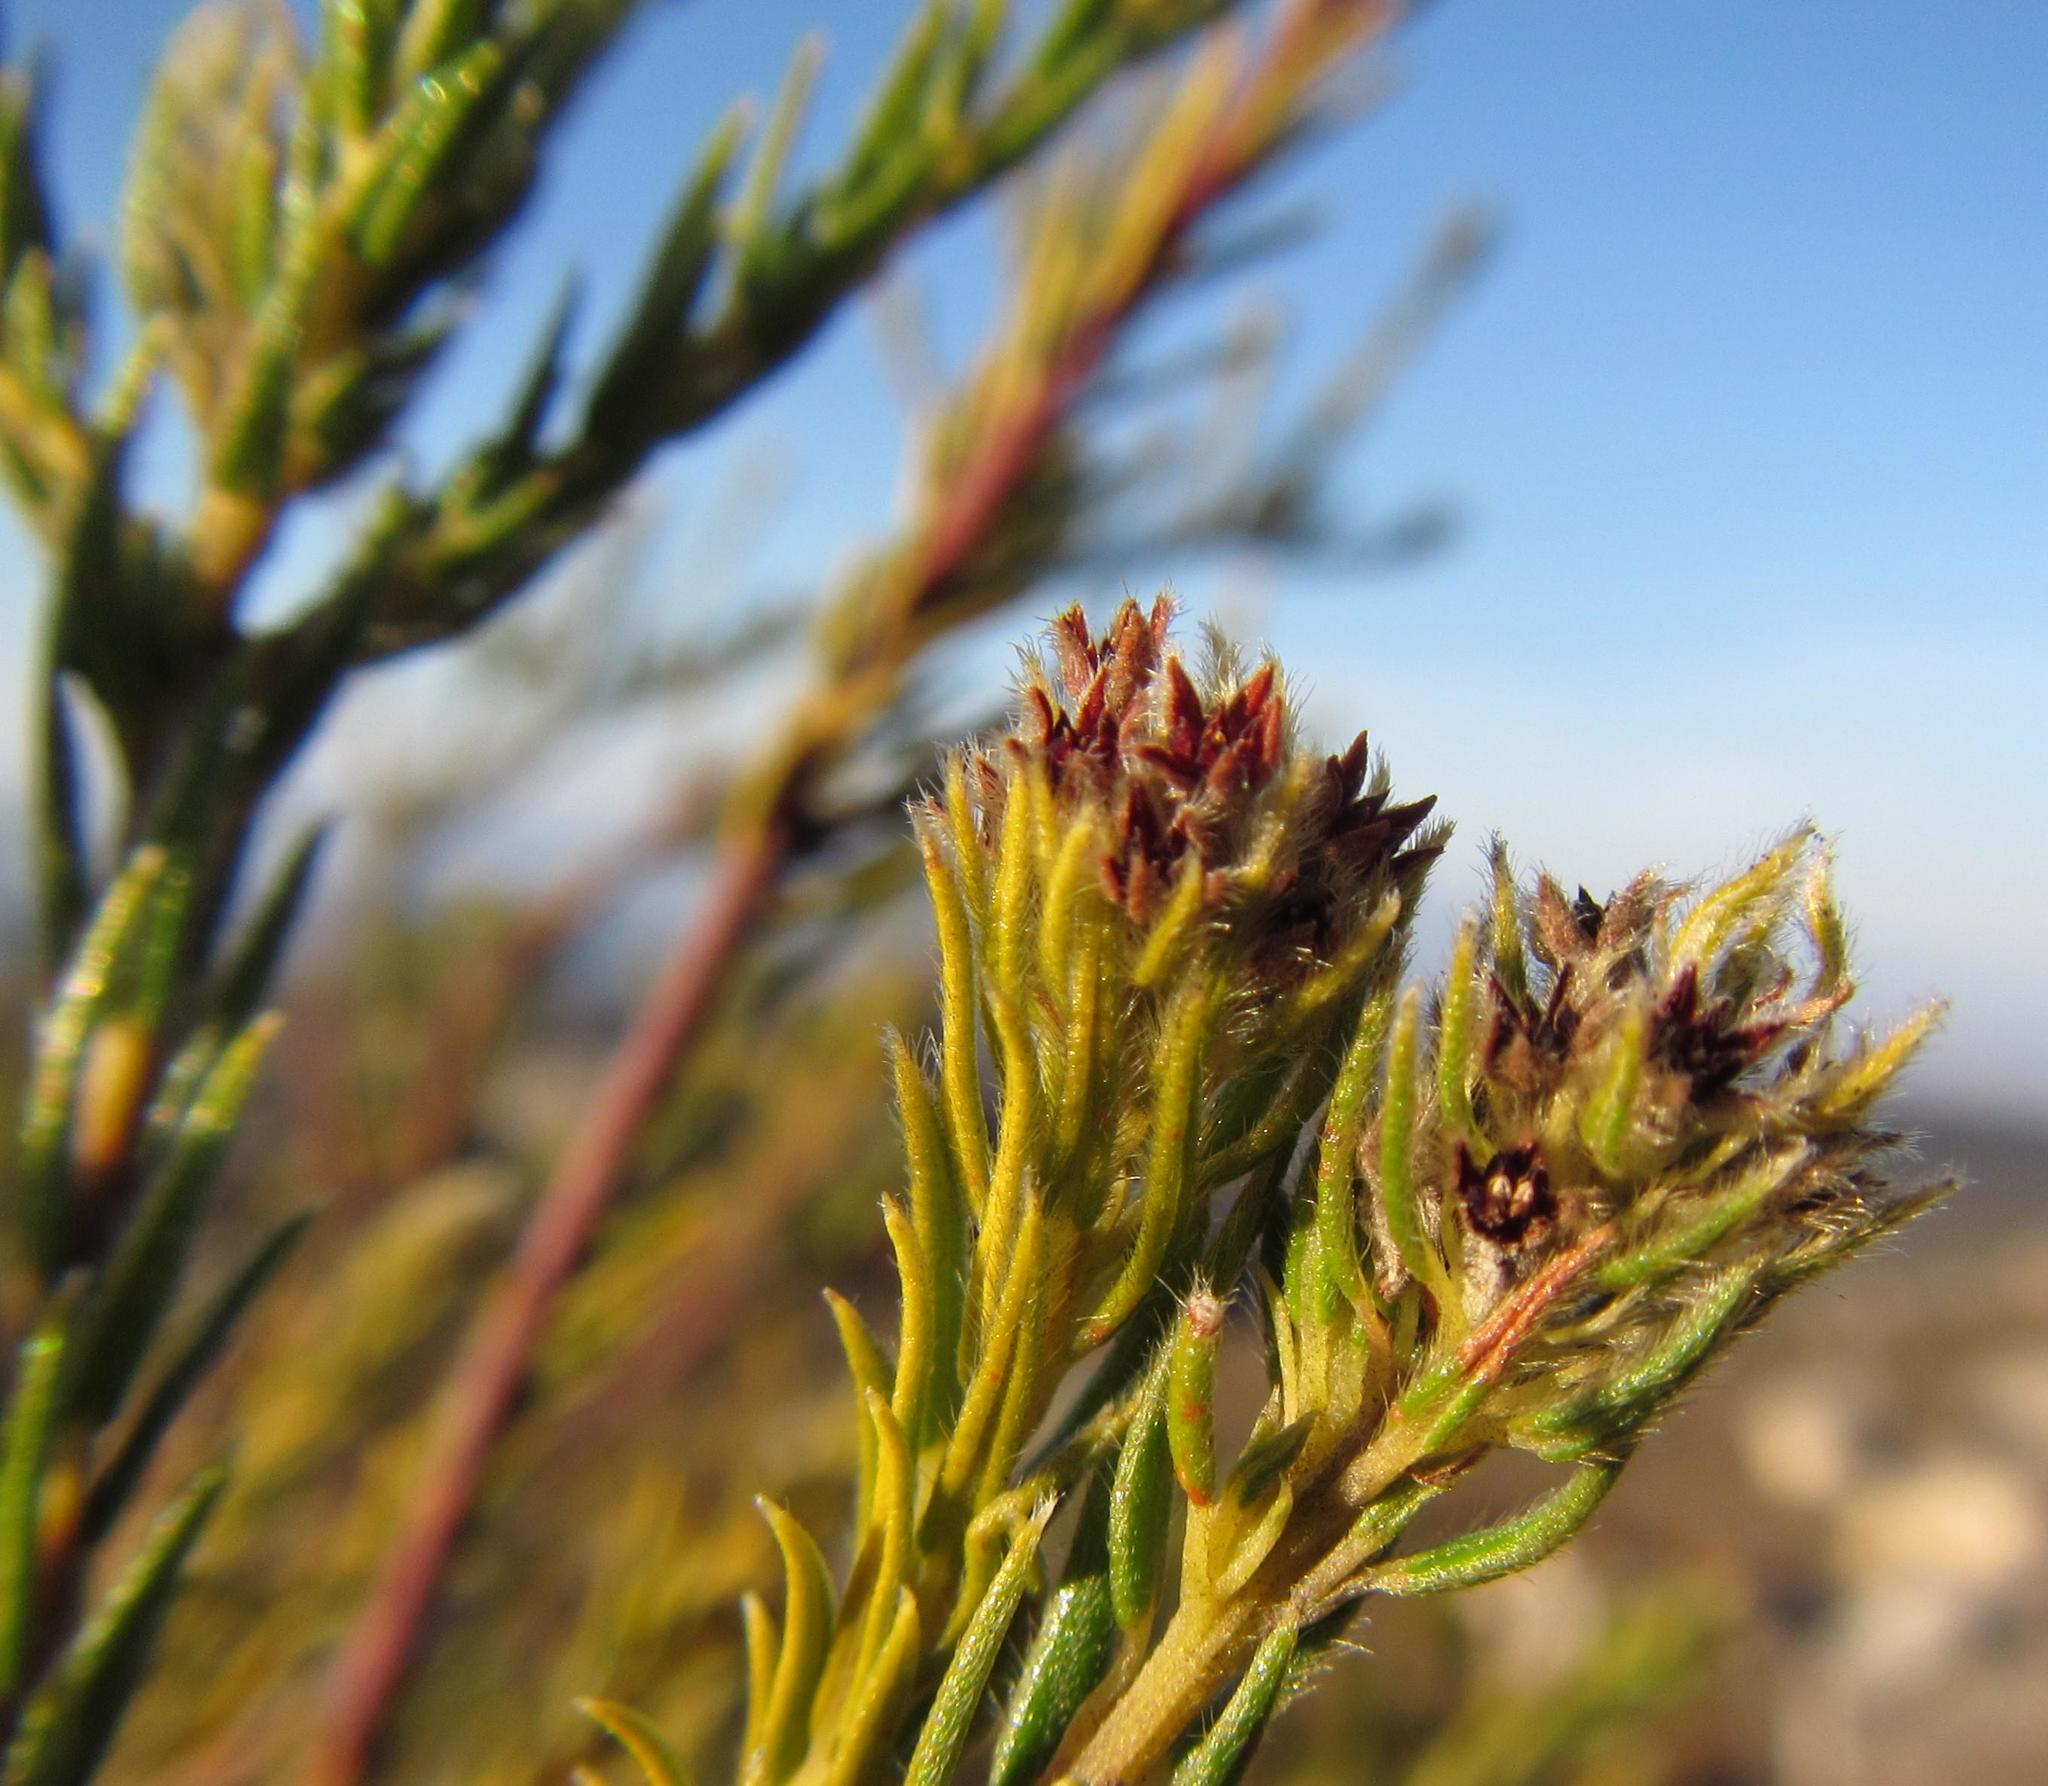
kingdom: Plantae
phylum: Tracheophyta
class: Magnoliopsida
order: Rosales
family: Rhamnaceae
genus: Phylica
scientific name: Phylica excelsa
